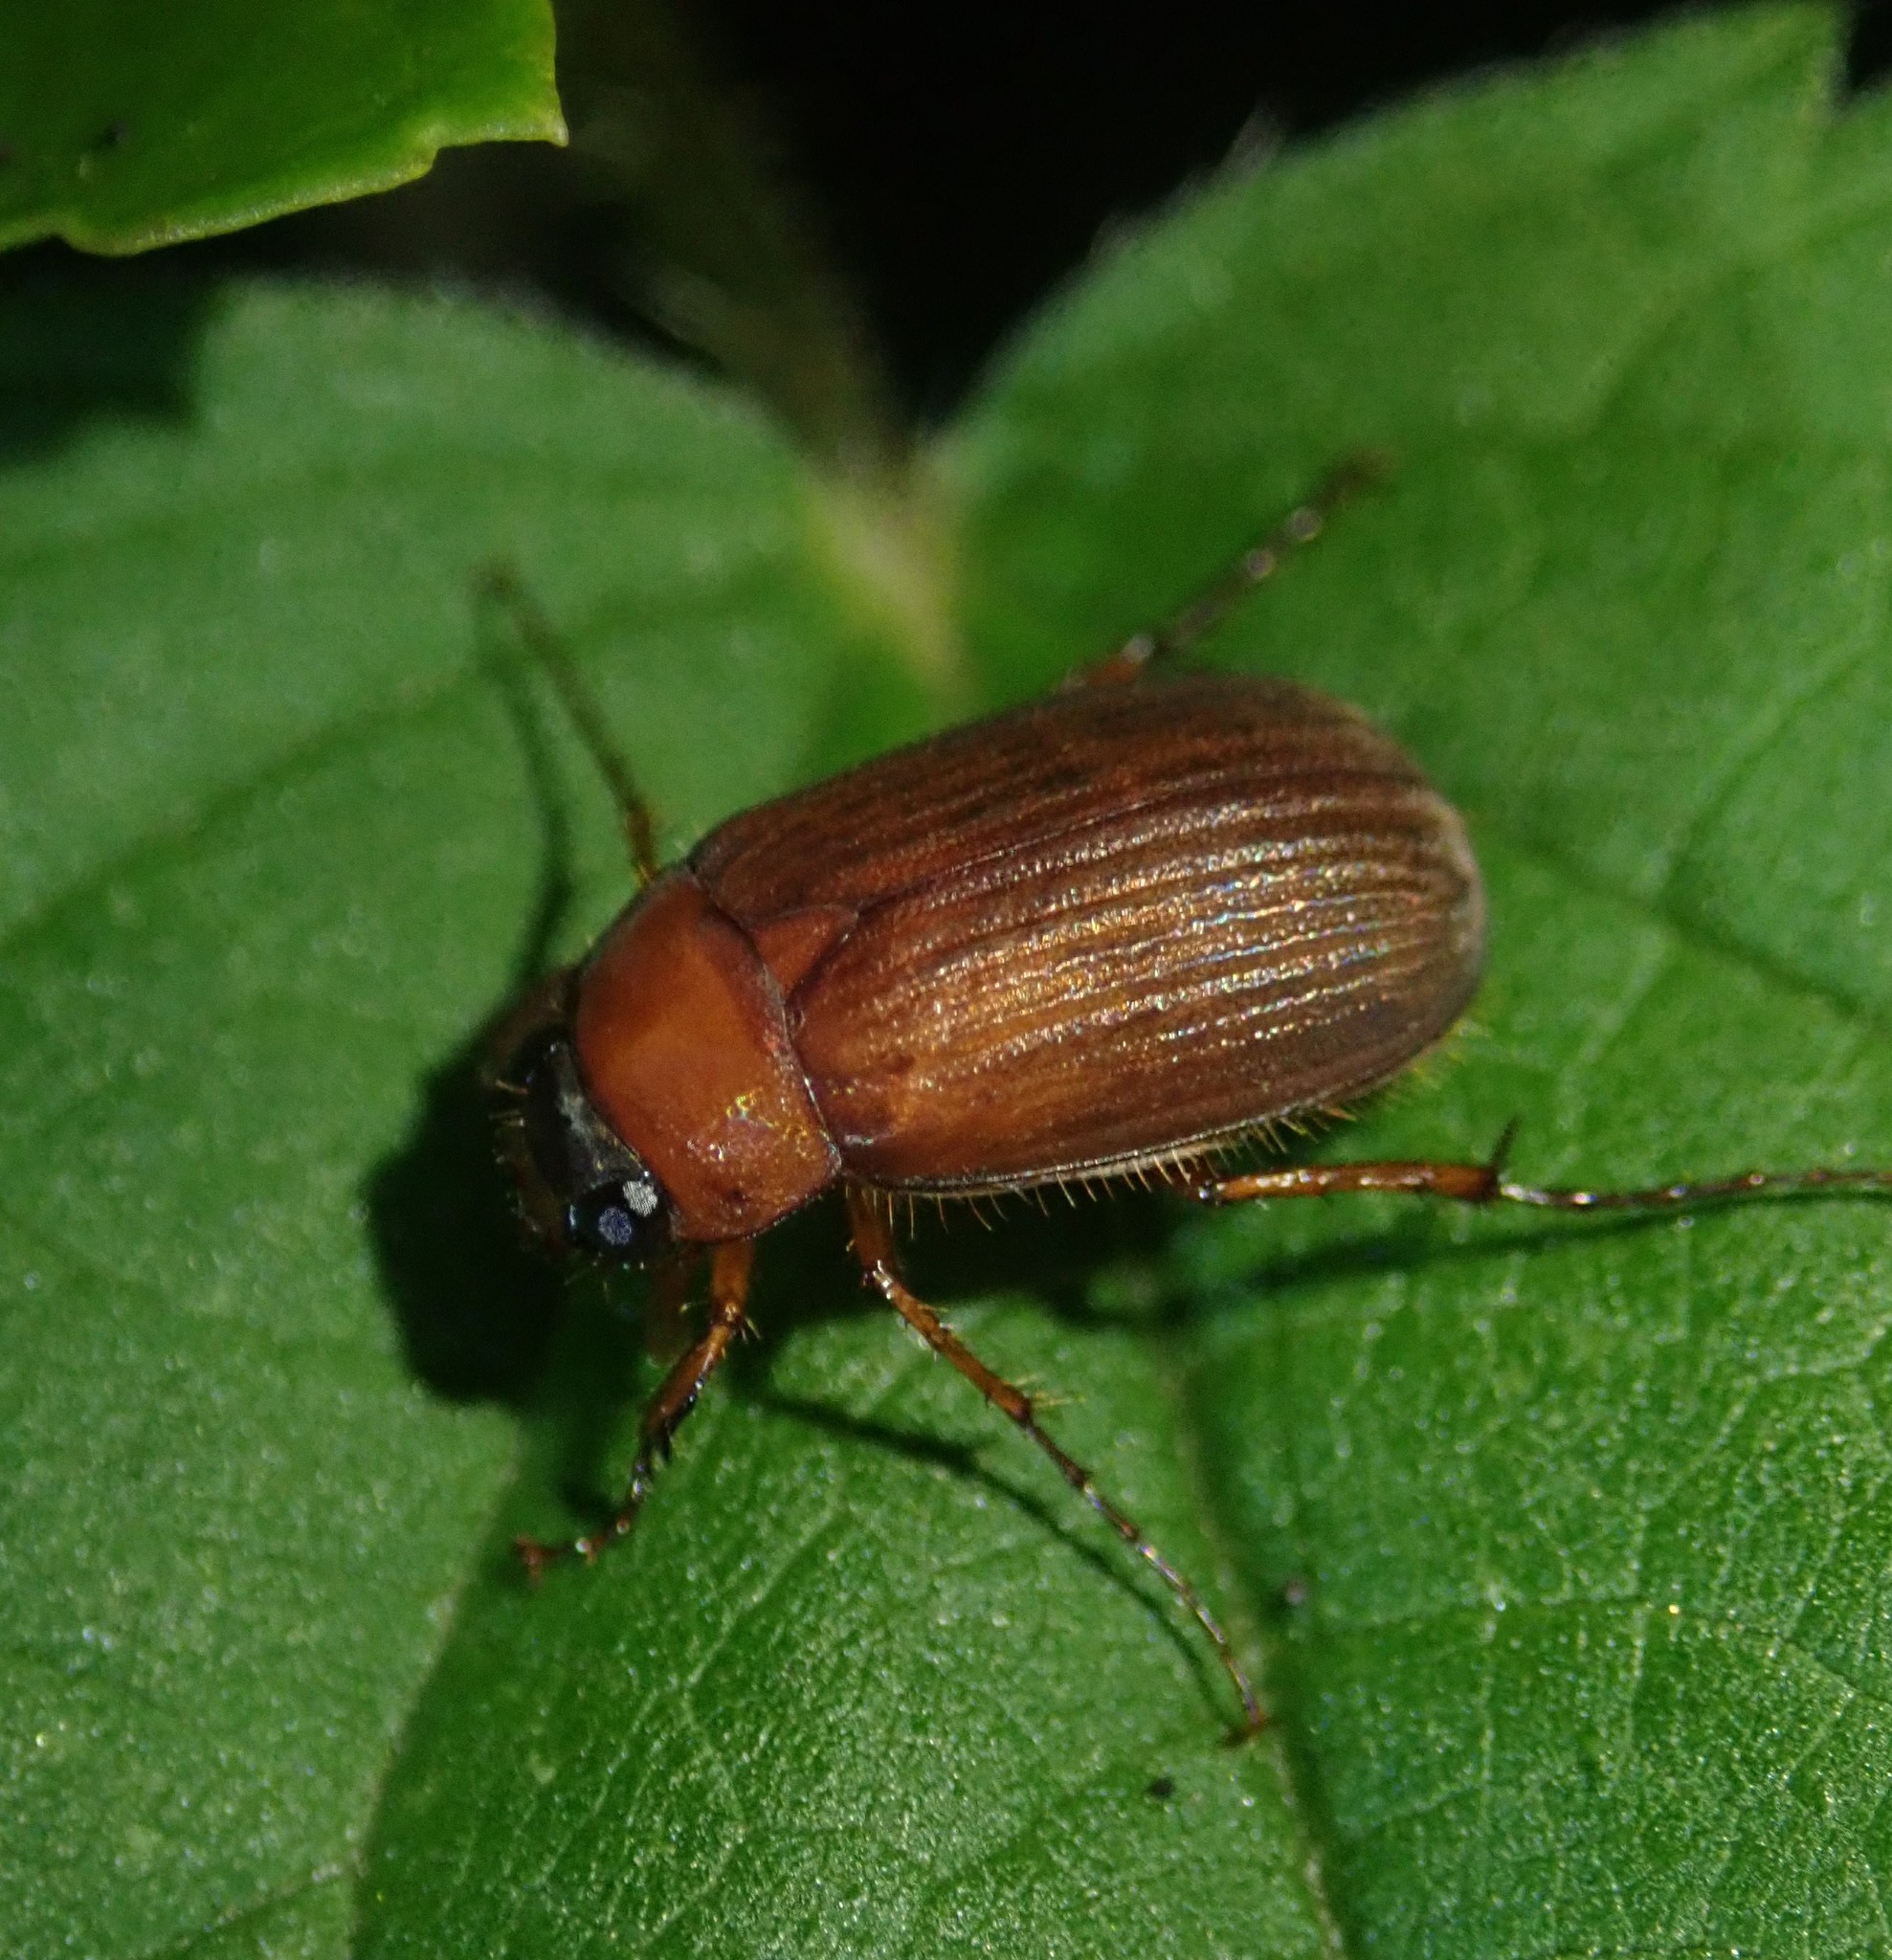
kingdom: Animalia
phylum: Arthropoda
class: Insecta
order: Coleoptera
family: Scarabaeidae
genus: Serica
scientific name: Serica brunnea
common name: Brown chafer
